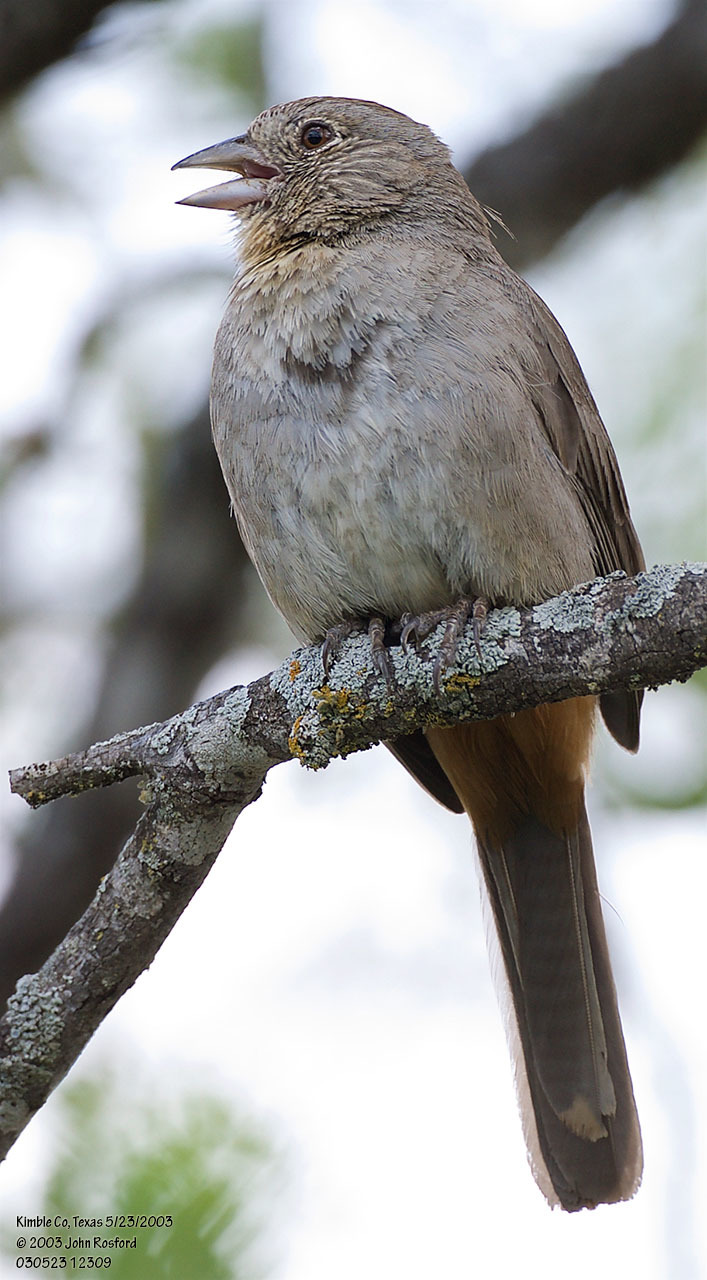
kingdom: Animalia
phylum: Chordata
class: Aves
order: Passeriformes
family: Passerellidae
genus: Melozone
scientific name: Melozone fusca
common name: Canyon towhee
